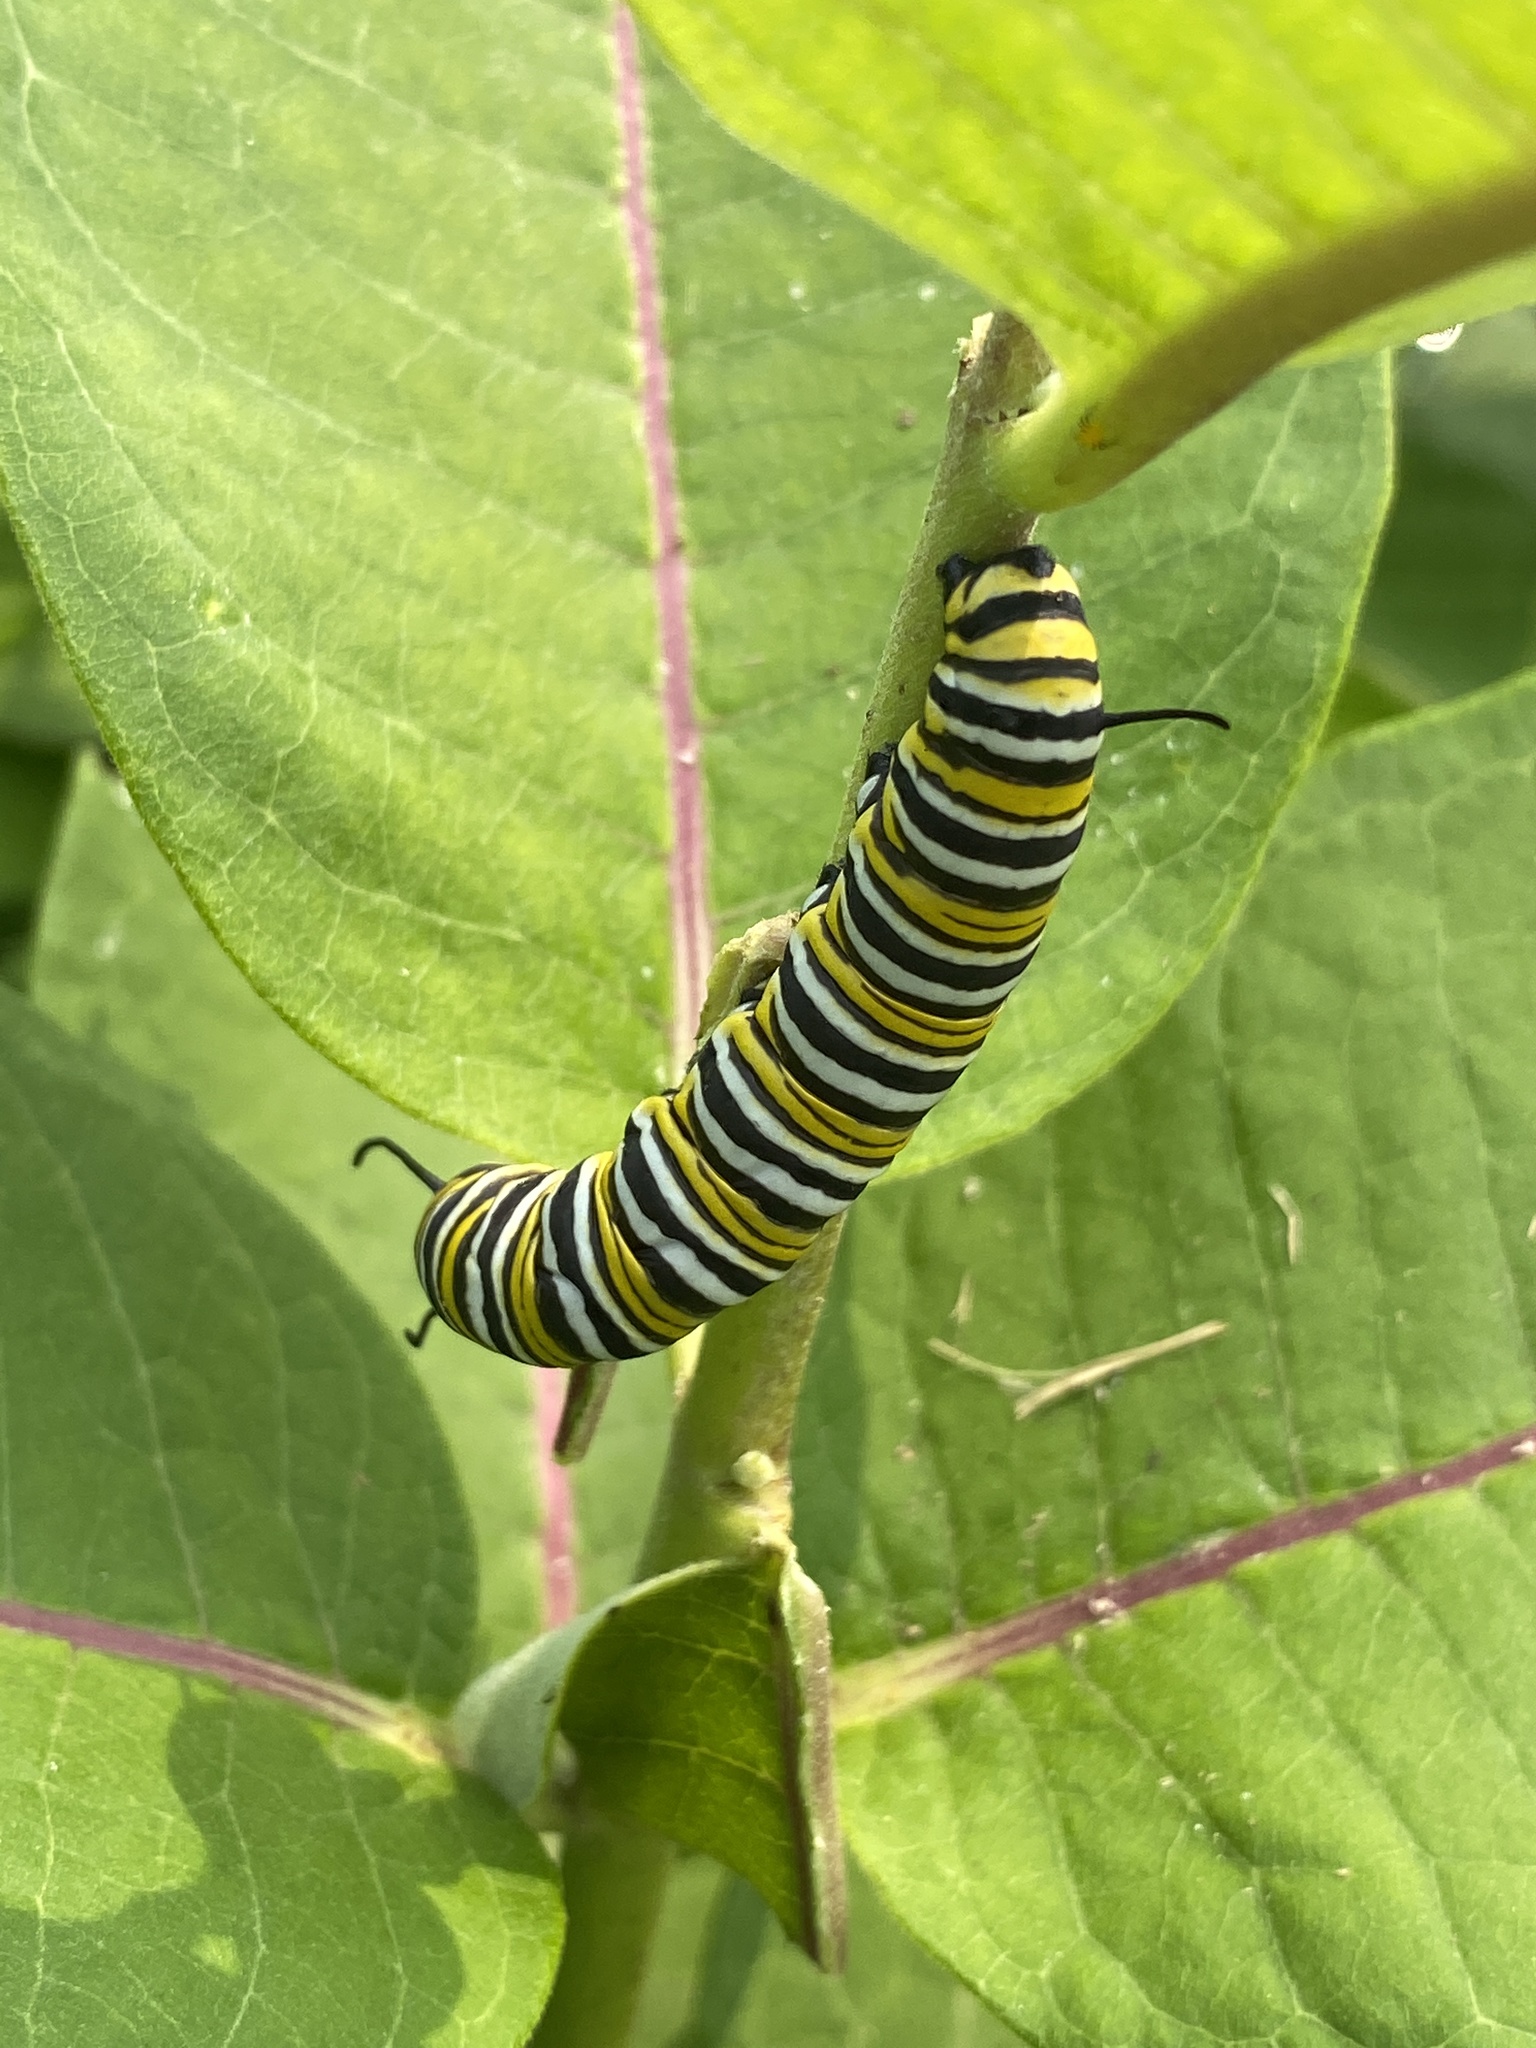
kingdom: Animalia
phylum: Arthropoda
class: Insecta
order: Lepidoptera
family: Nymphalidae
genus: Danaus
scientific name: Danaus plexippus
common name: Monarch
